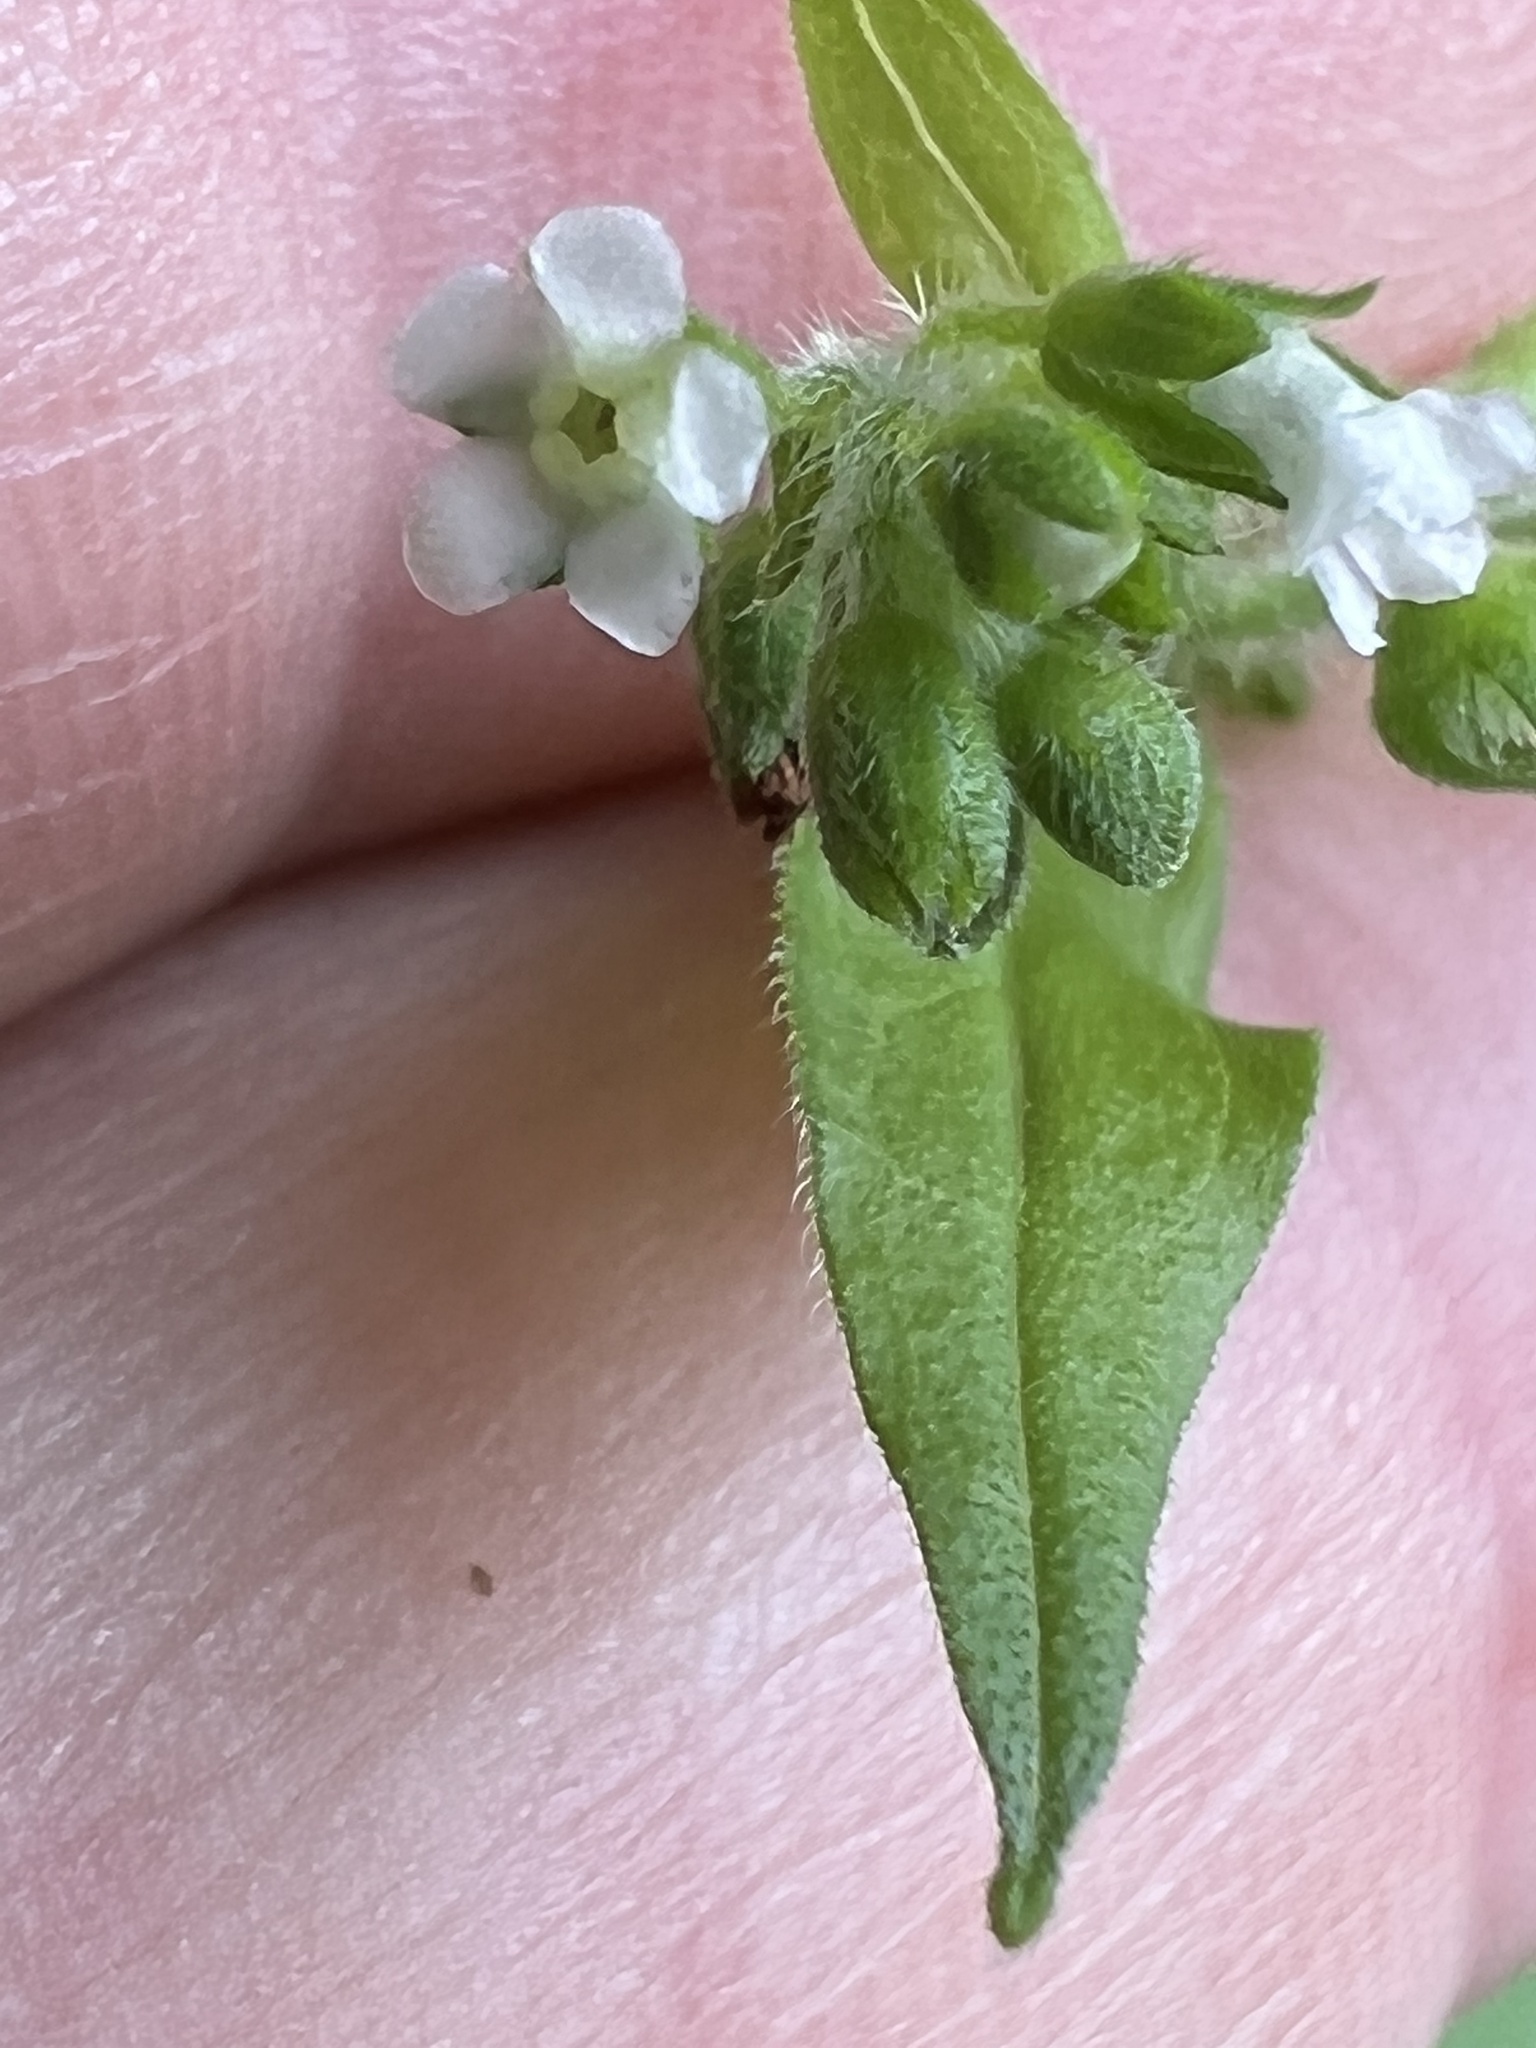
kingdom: Plantae
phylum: Tracheophyta
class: Magnoliopsida
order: Boraginales
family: Boraginaceae
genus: Hackelia
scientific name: Hackelia virginiana
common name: Beggar's-lice
